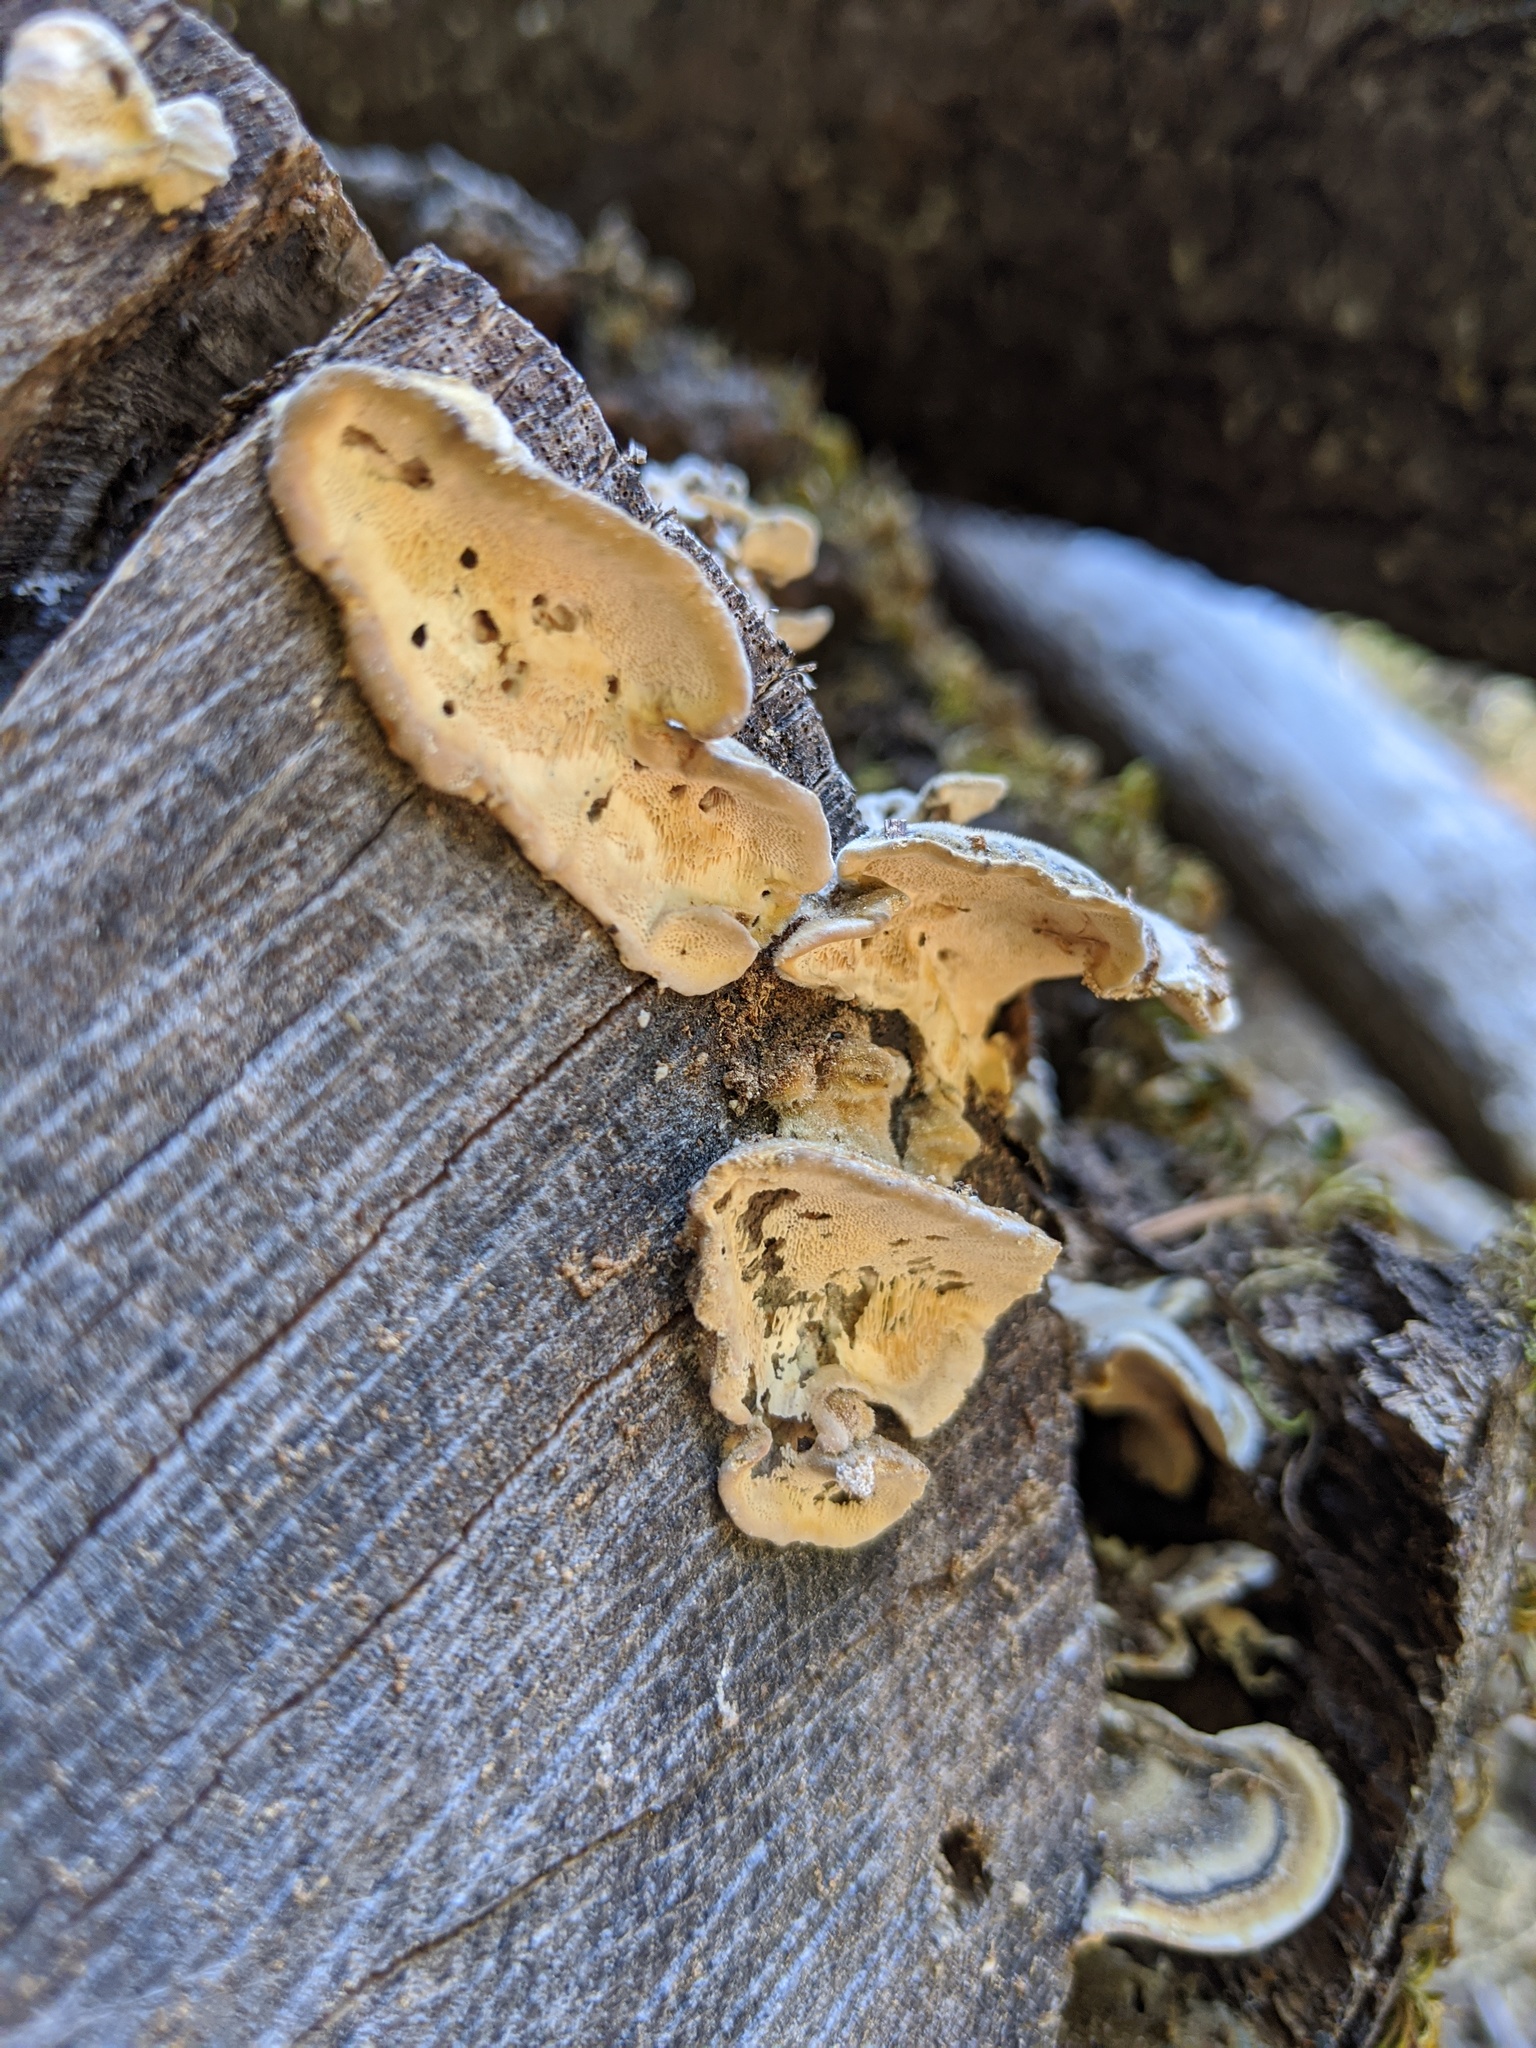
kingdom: Fungi
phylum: Basidiomycota
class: Agaricomycetes
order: Polyporales
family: Polyporaceae
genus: Trametes
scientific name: Trametes versicolor
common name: Turkeytail
